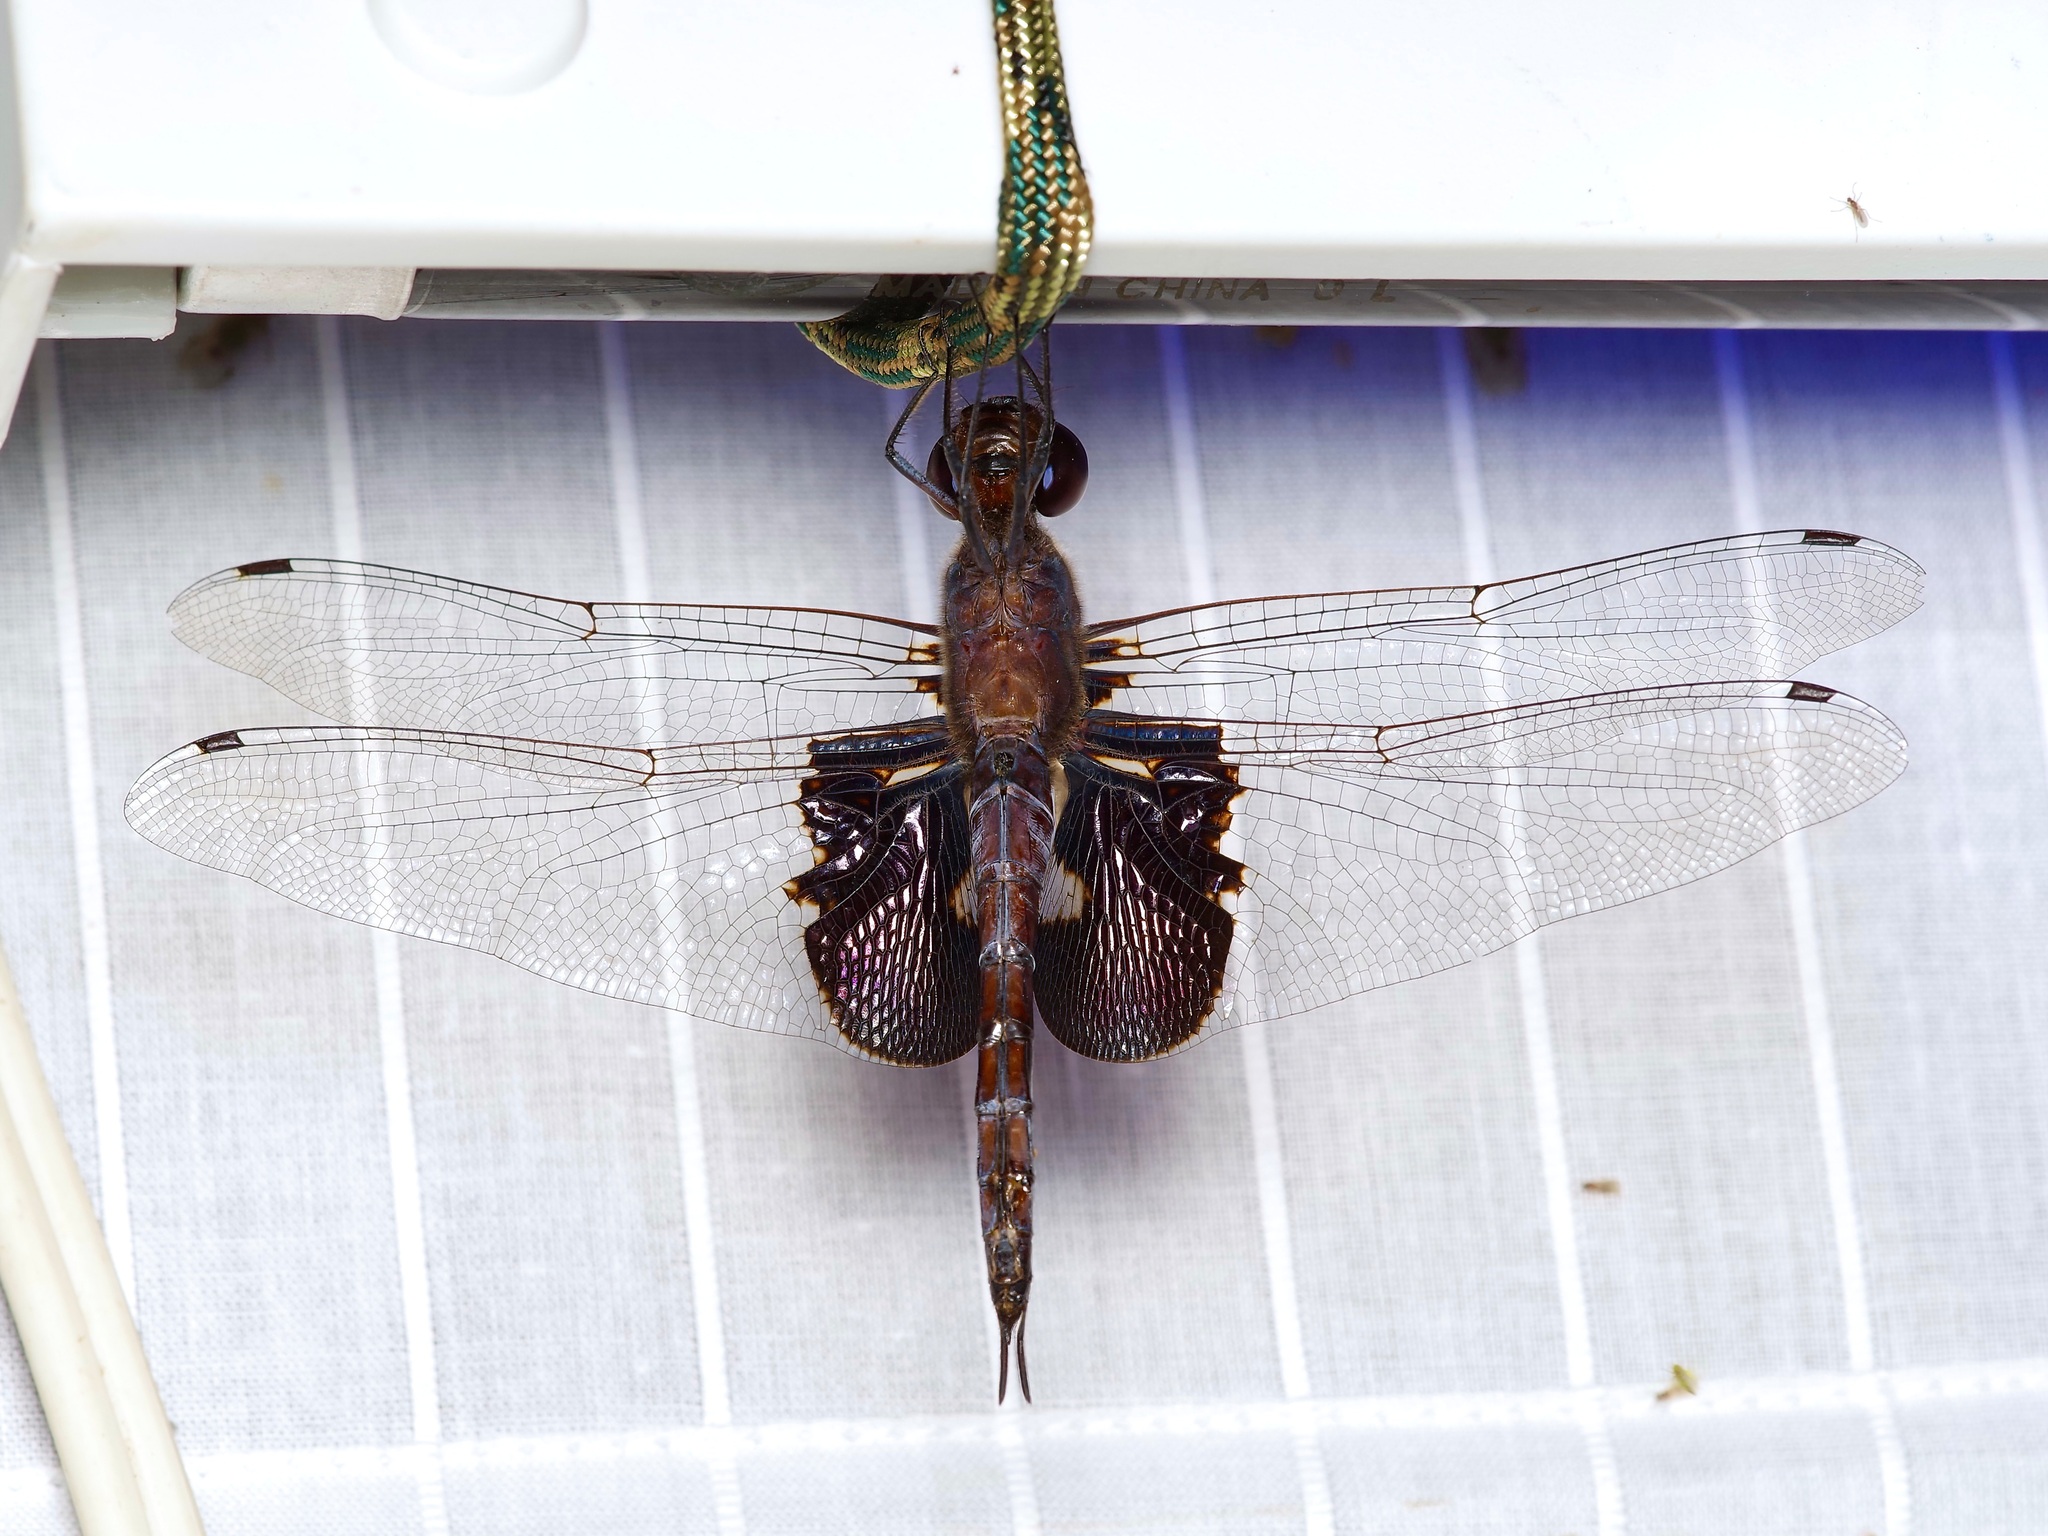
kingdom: Animalia
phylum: Arthropoda
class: Insecta
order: Odonata
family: Libellulidae
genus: Tramea
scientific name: Tramea lacerata
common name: Black saddlebags
